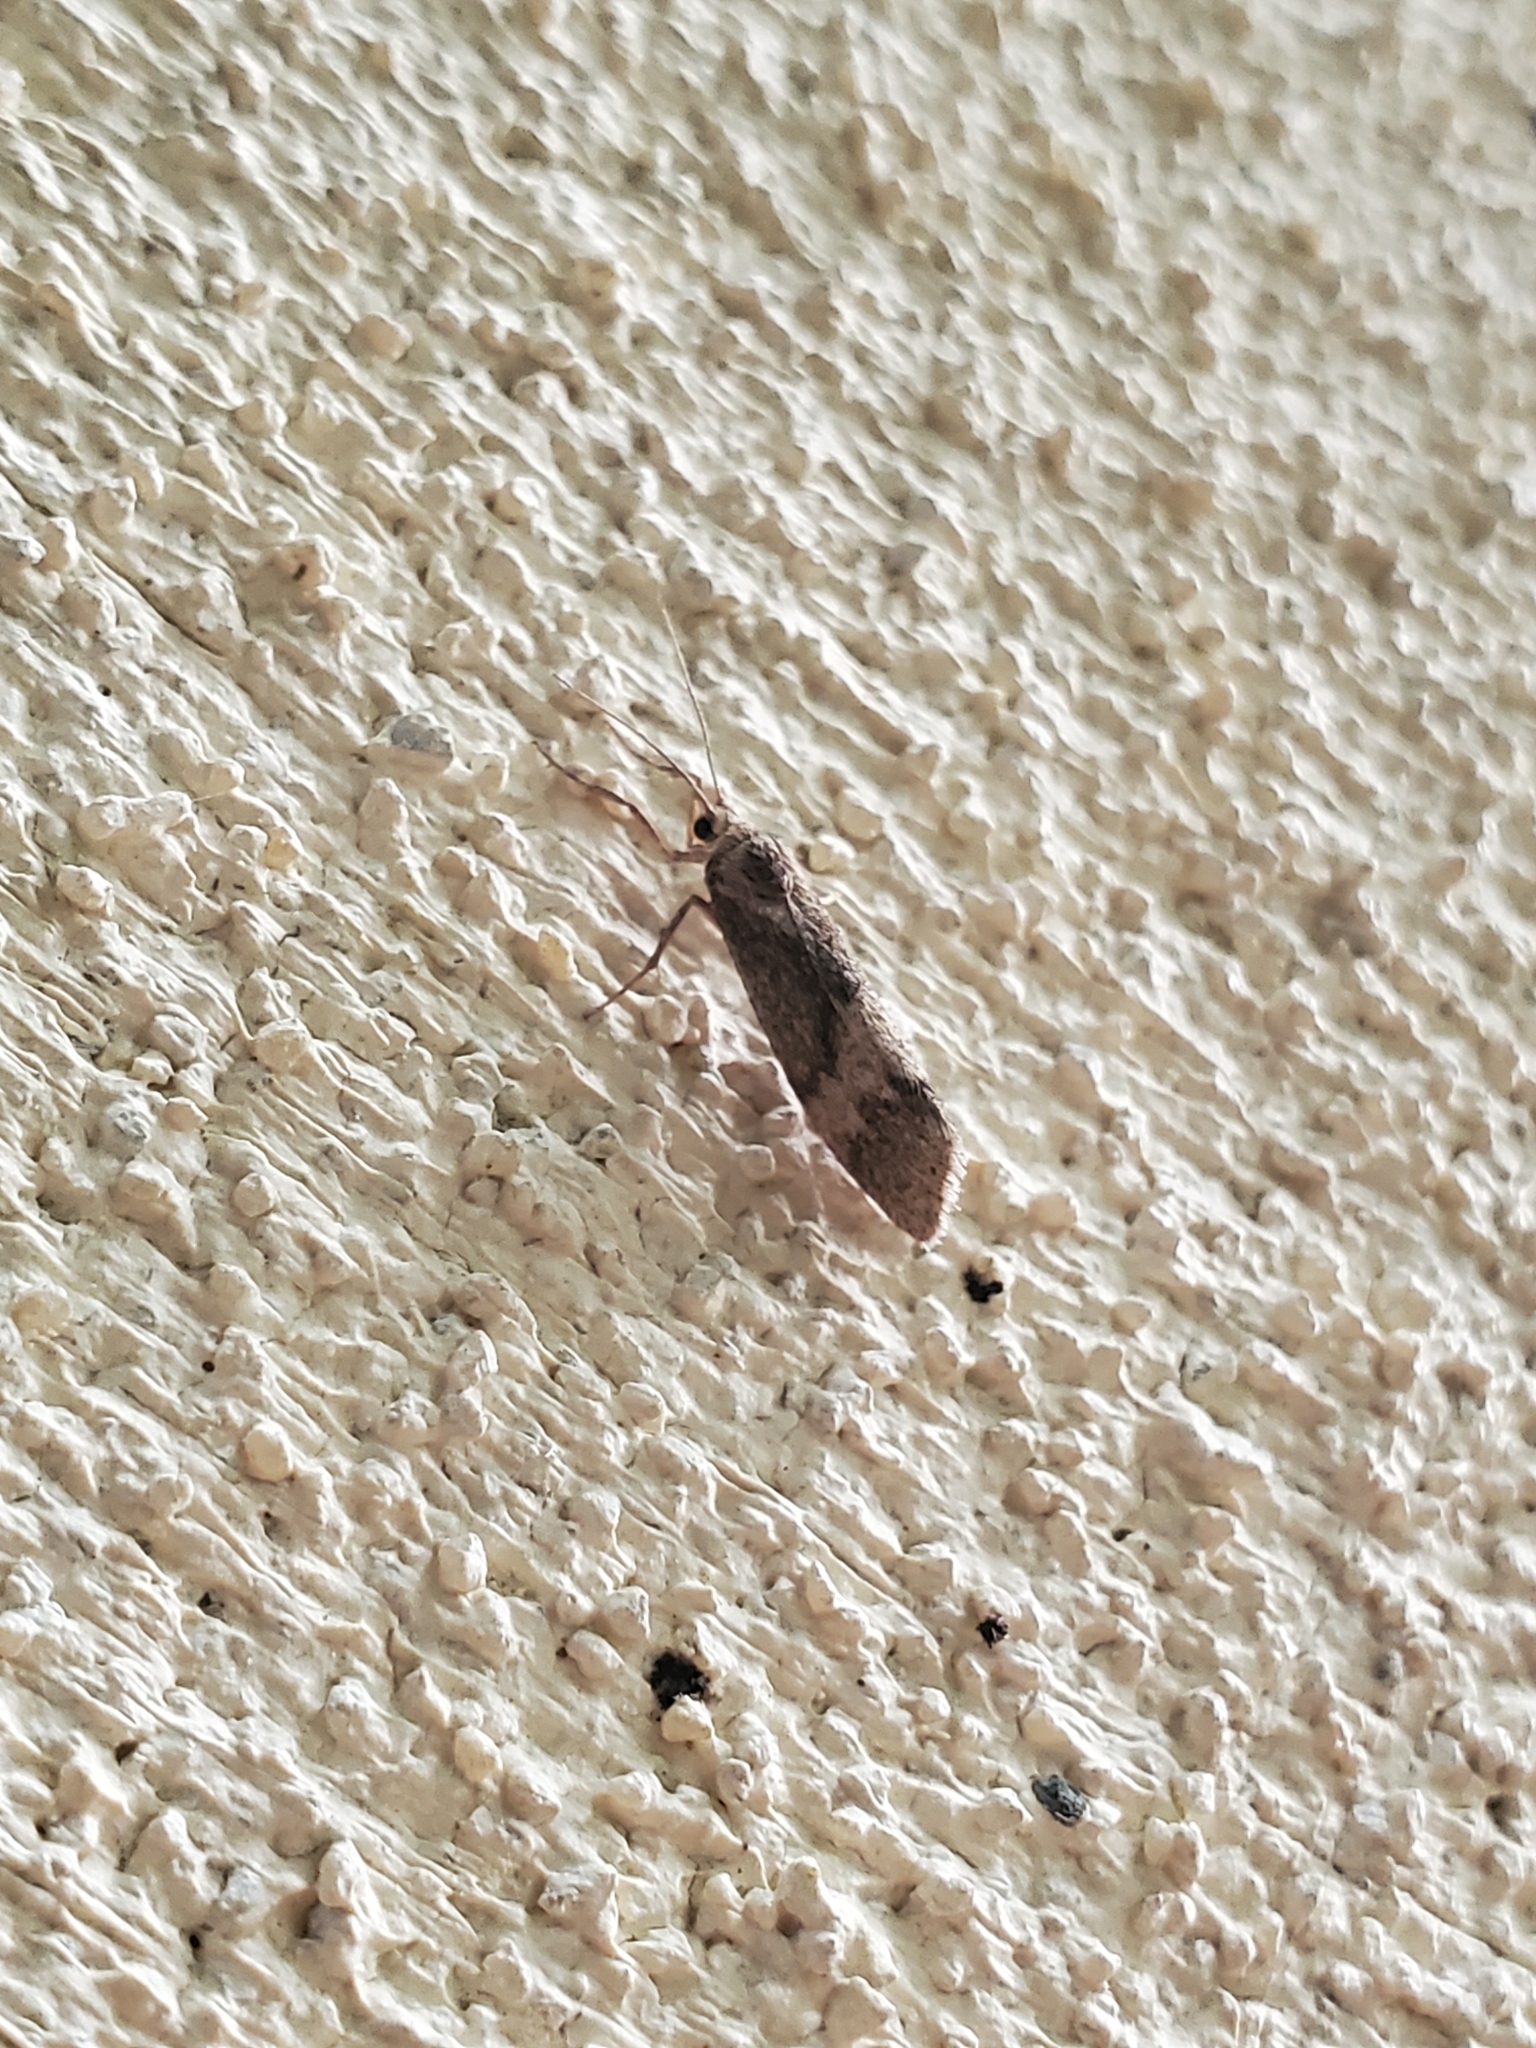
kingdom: Animalia
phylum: Arthropoda
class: Insecta
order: Lepidoptera
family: Erebidae
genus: Cisthene
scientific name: Cisthene faustinula
